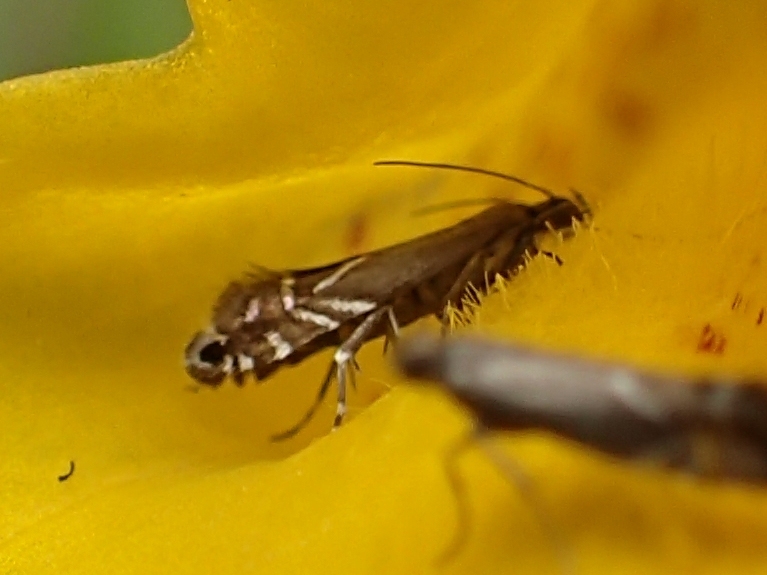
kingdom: Animalia
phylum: Arthropoda
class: Insecta
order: Lepidoptera
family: Glyphipterigidae
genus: Glyphipterix
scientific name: Glyphipterix simpliciella
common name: Cocksfoot moth
